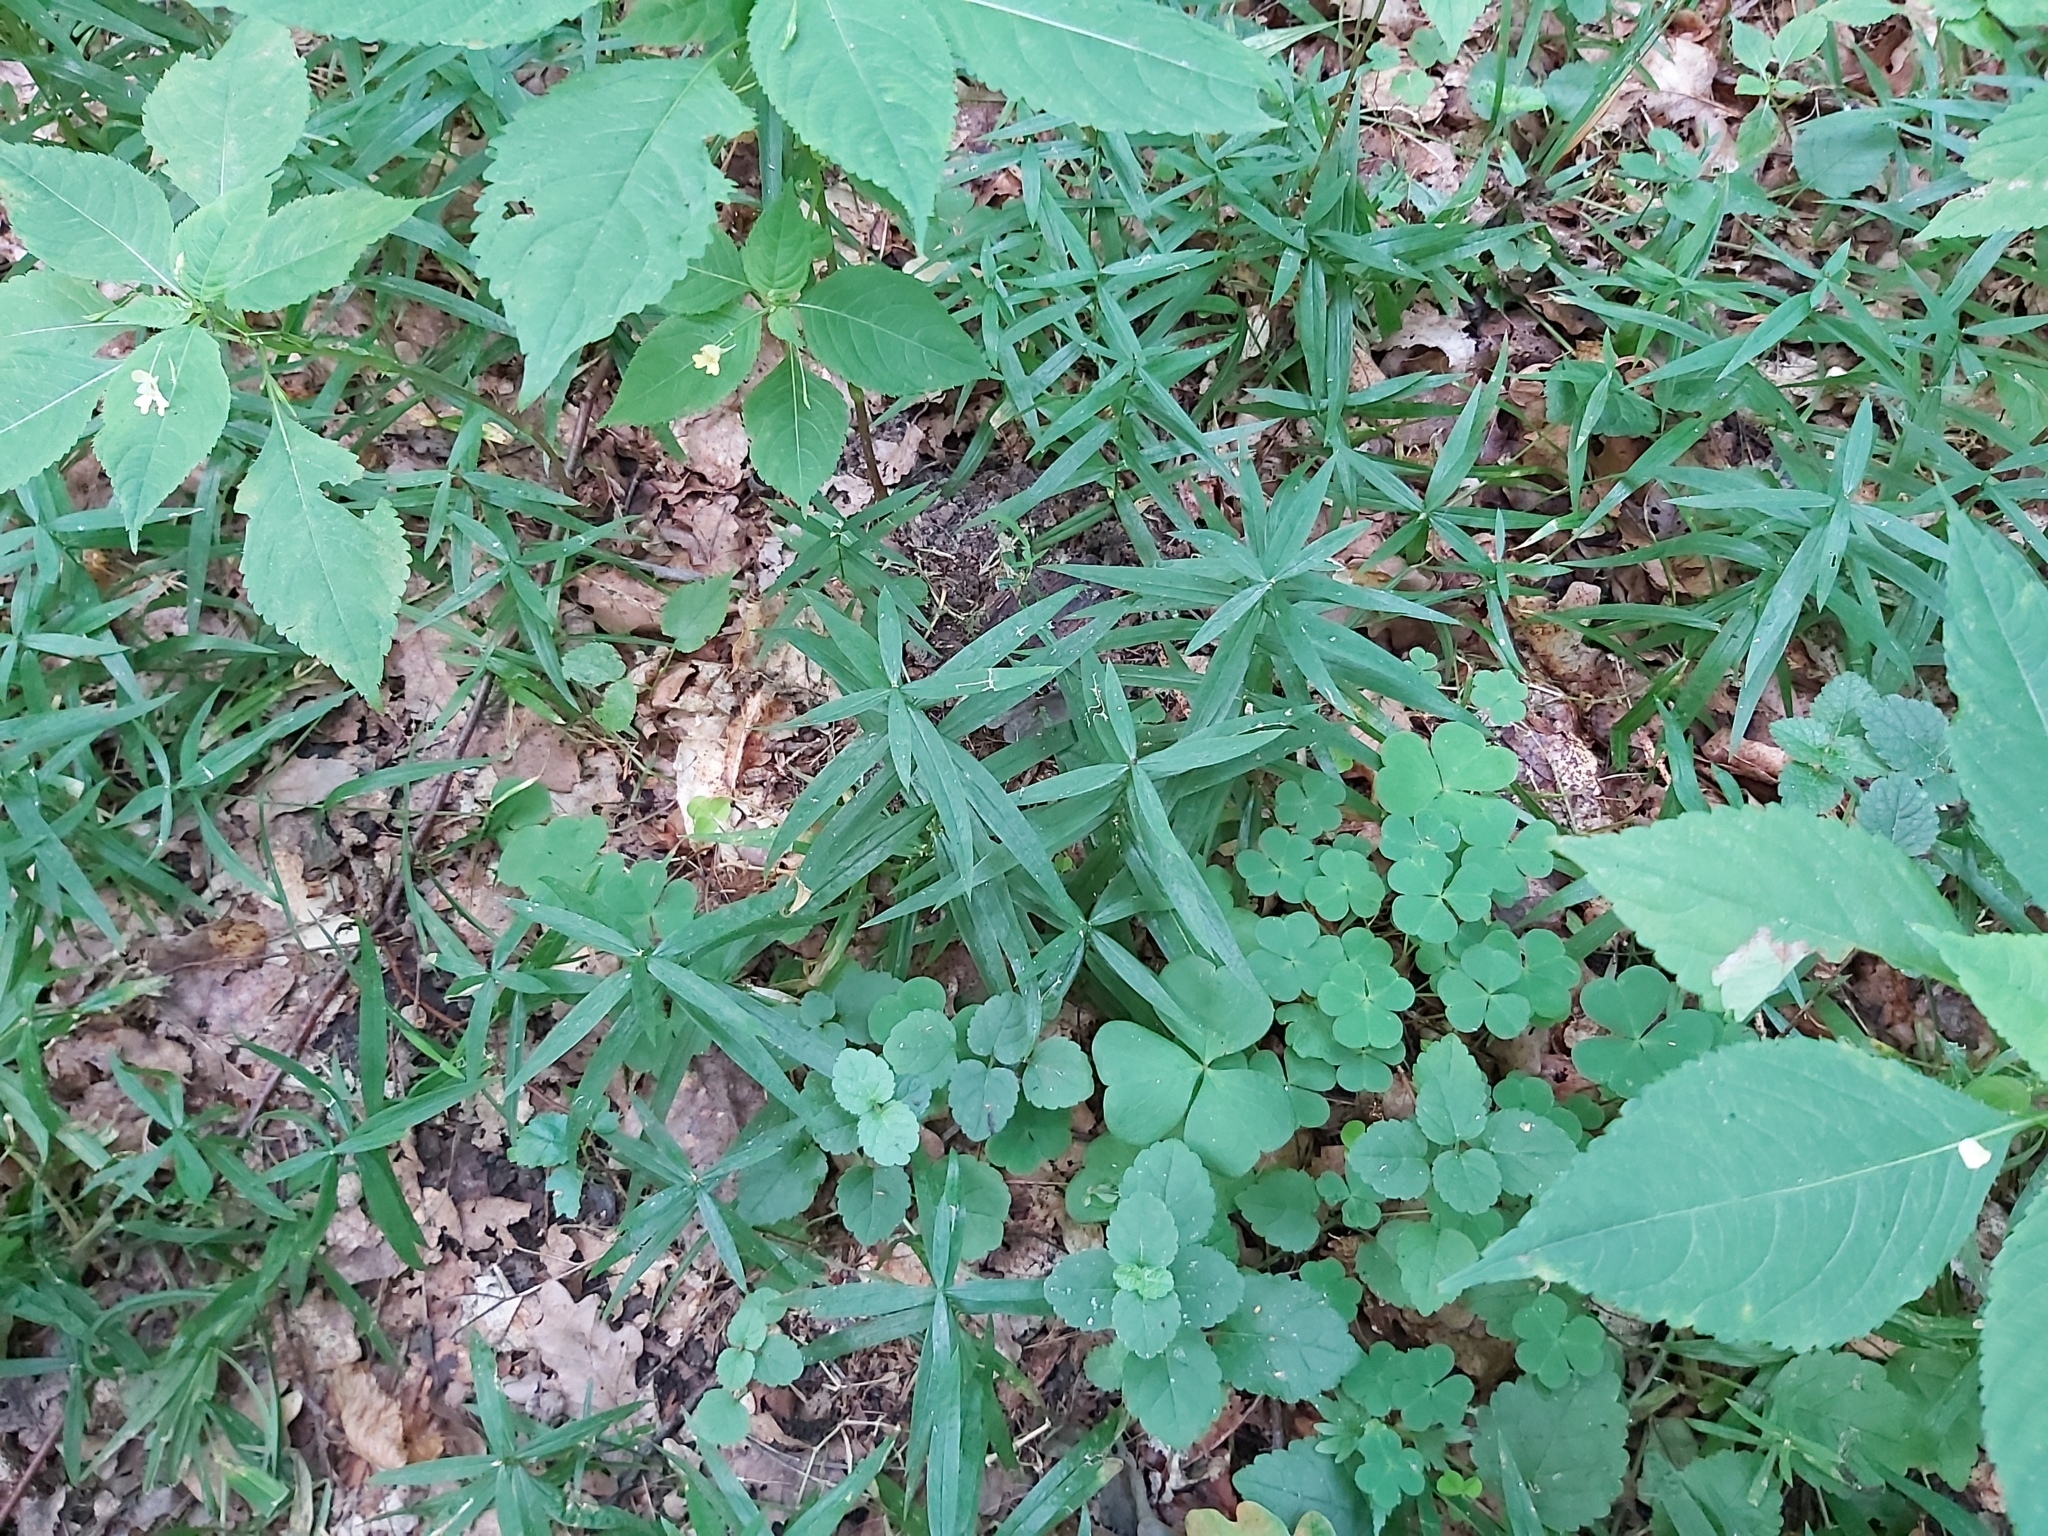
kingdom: Plantae
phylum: Tracheophyta
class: Magnoliopsida
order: Caryophyllales
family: Caryophyllaceae
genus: Rabelera
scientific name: Rabelera holostea
